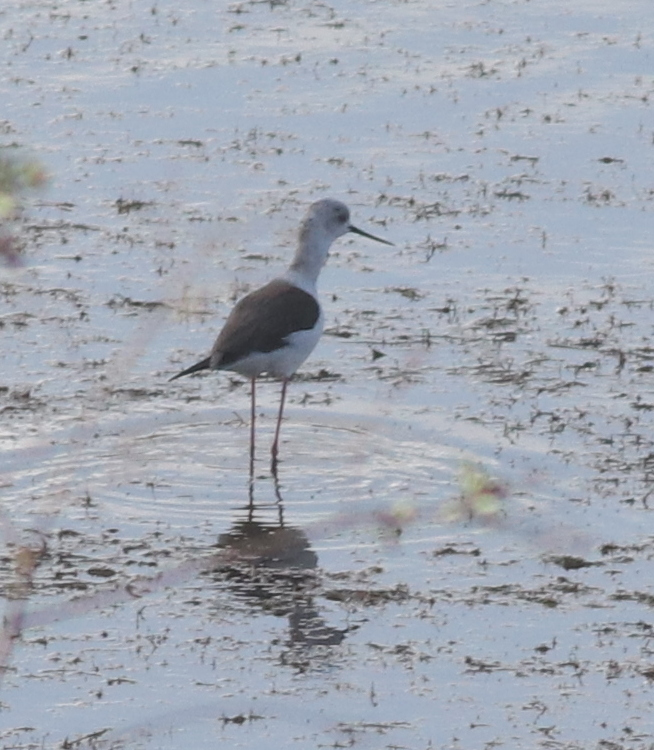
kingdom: Animalia
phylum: Chordata
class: Aves
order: Charadriiformes
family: Recurvirostridae
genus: Himantopus
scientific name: Himantopus himantopus
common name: Black-winged stilt
